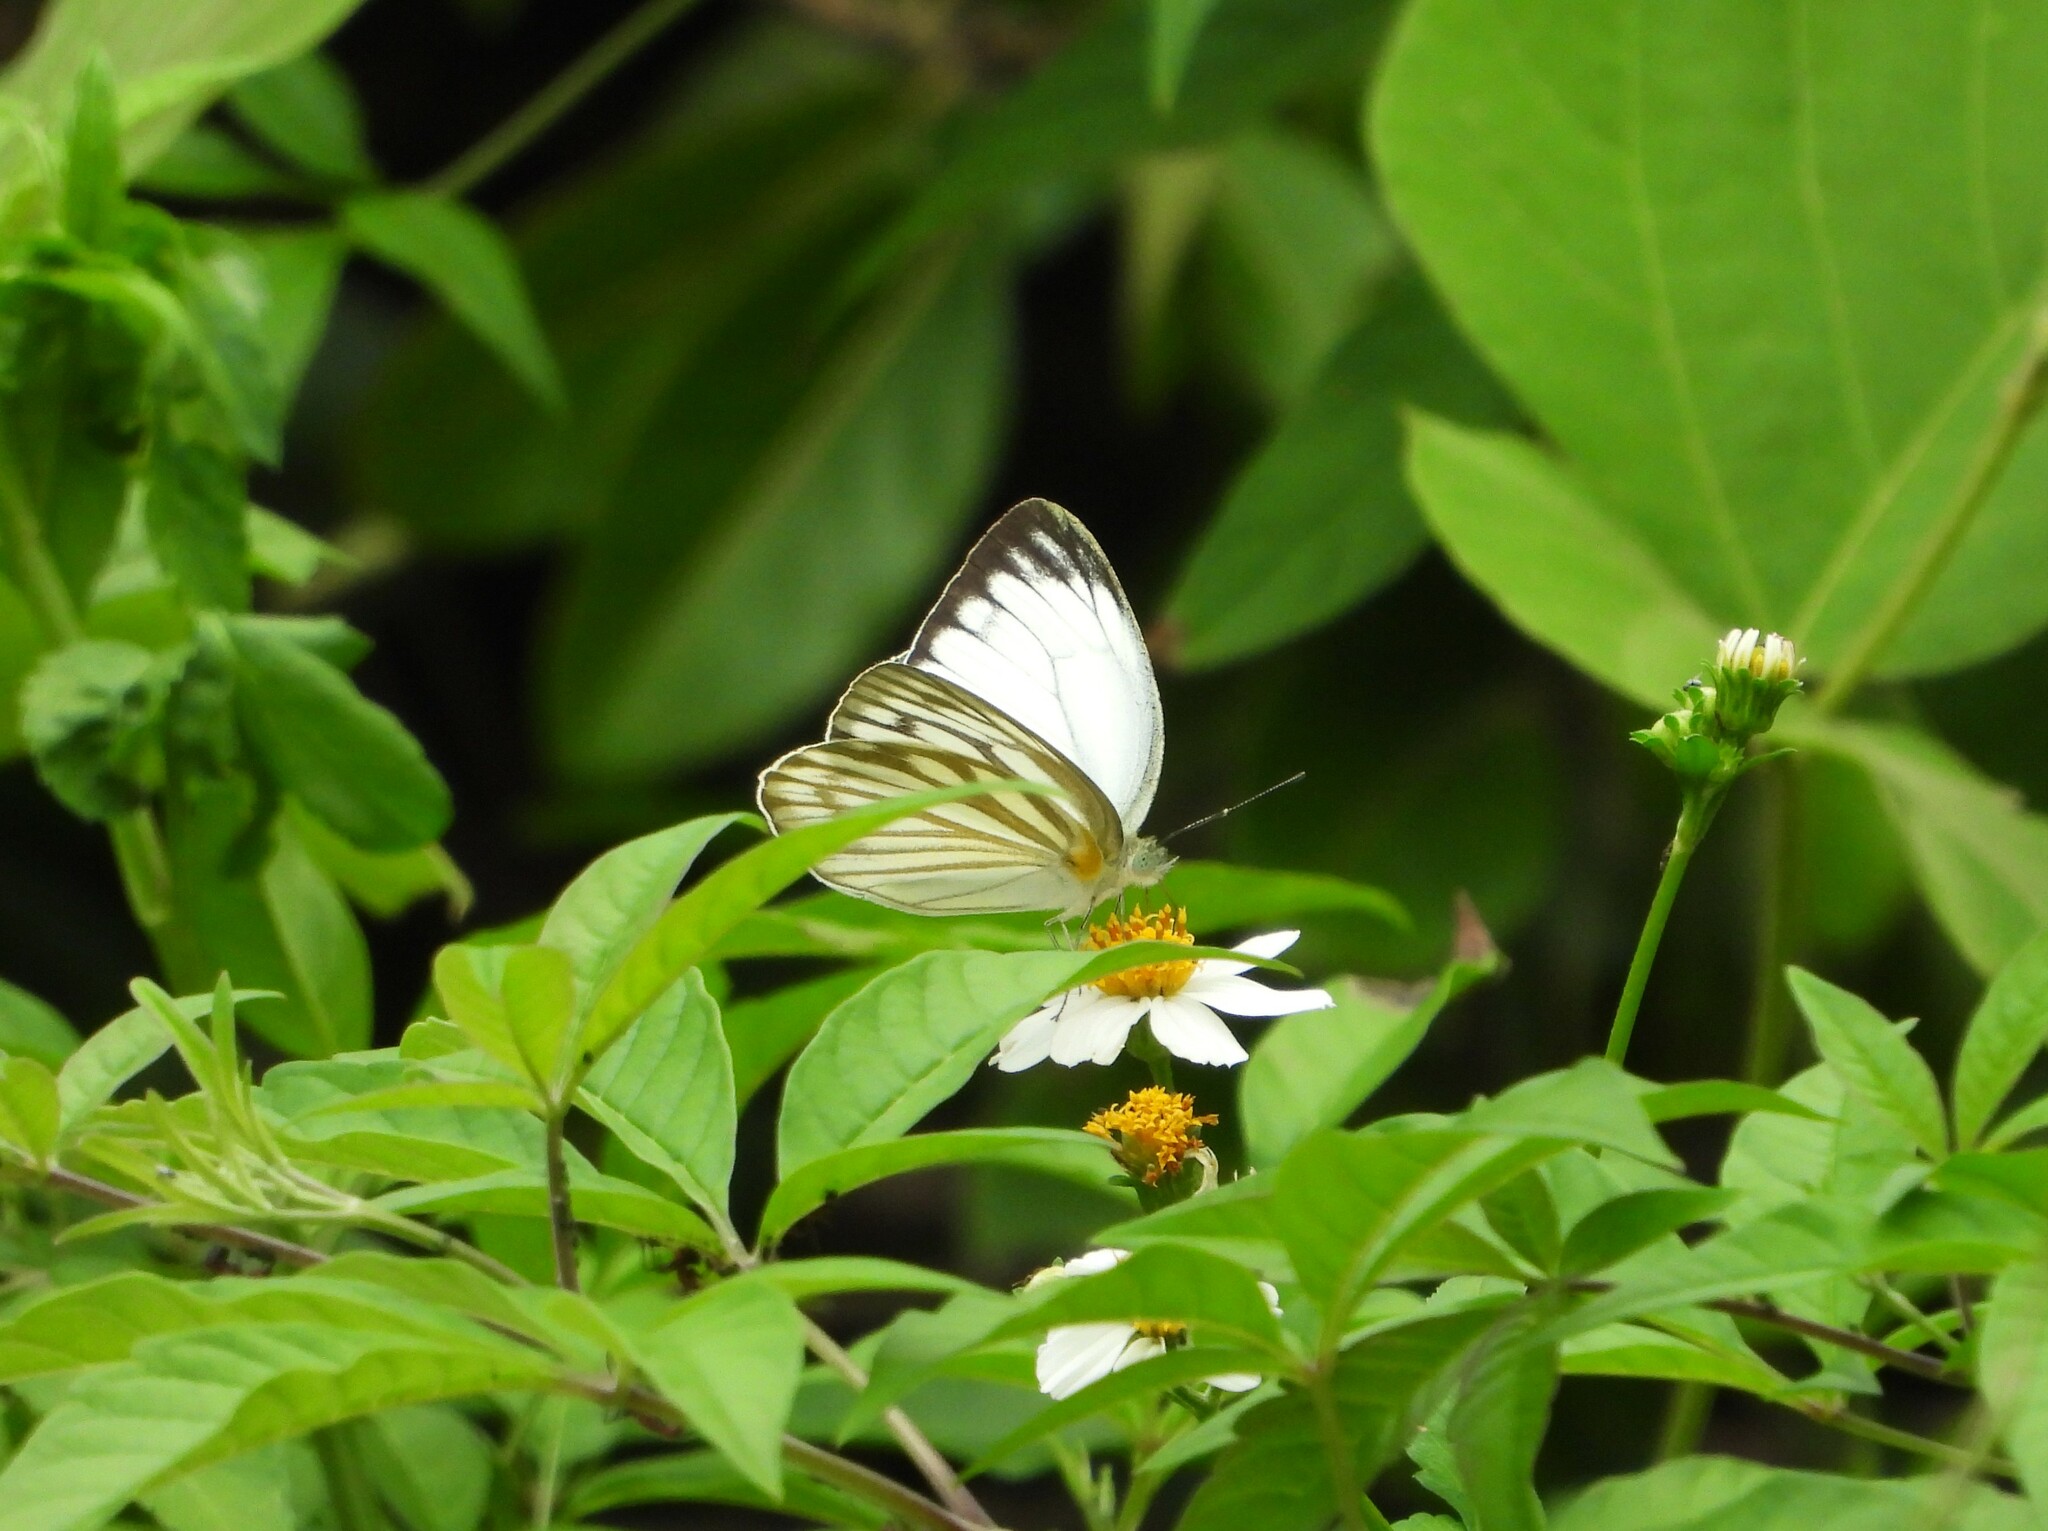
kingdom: Animalia
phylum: Arthropoda
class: Insecta
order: Lepidoptera
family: Pieridae
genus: Cepora
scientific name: Cepora nerissa
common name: Common gull
